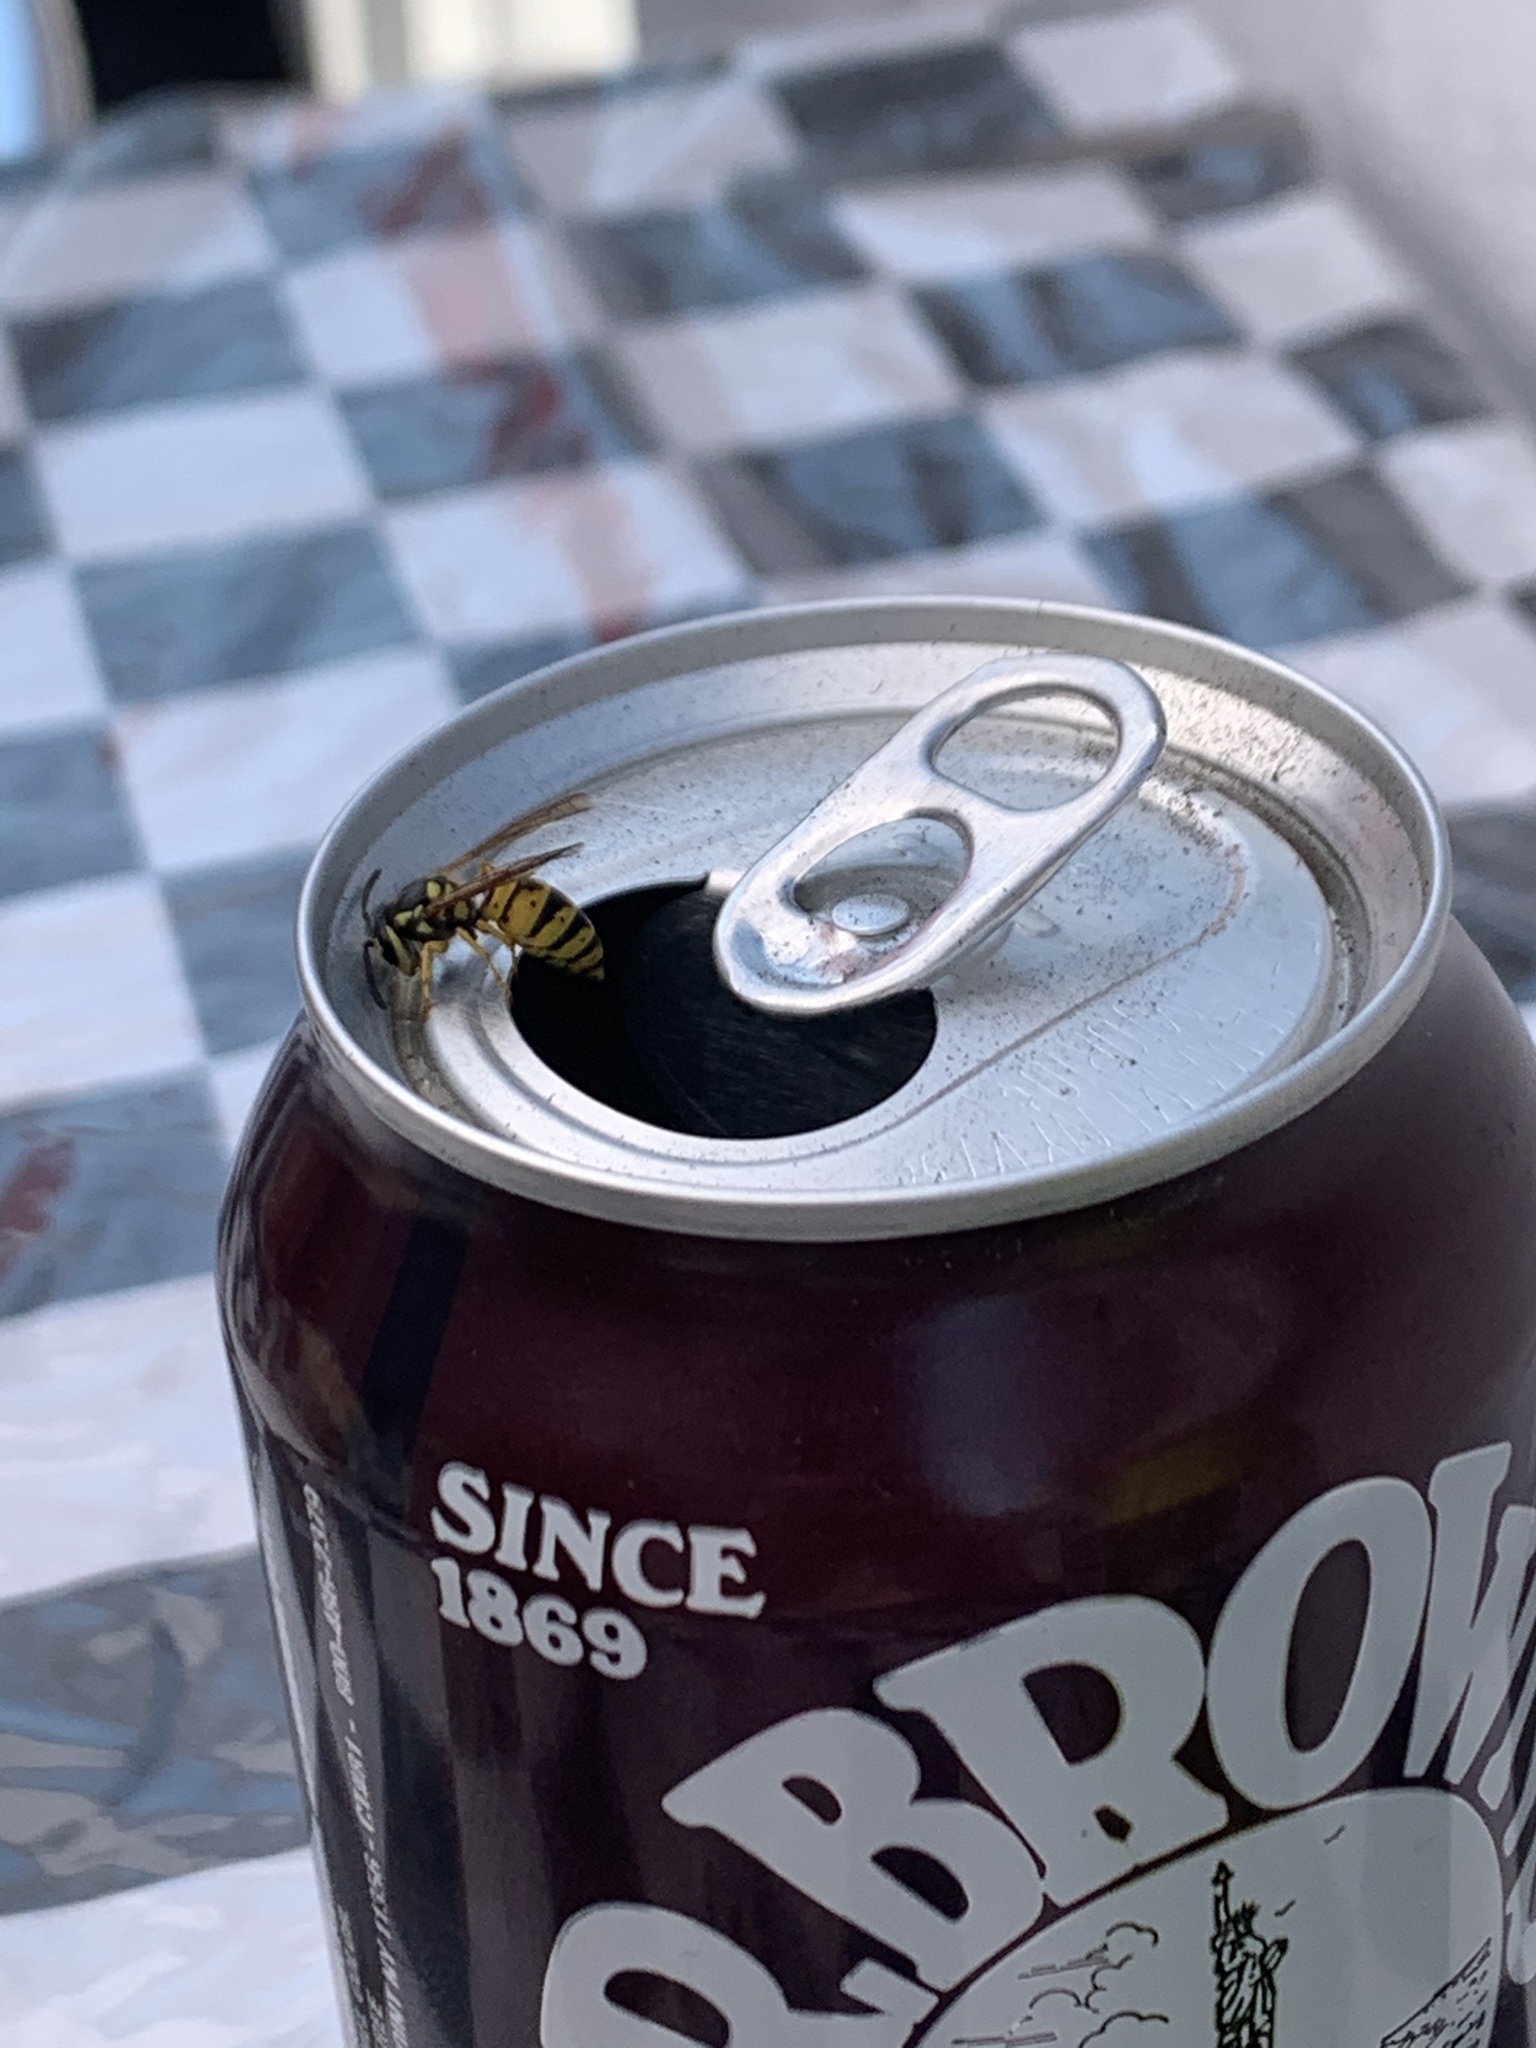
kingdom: Animalia
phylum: Arthropoda
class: Insecta
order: Hymenoptera
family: Vespidae
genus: Vespula
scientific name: Vespula germanica
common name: German wasp
